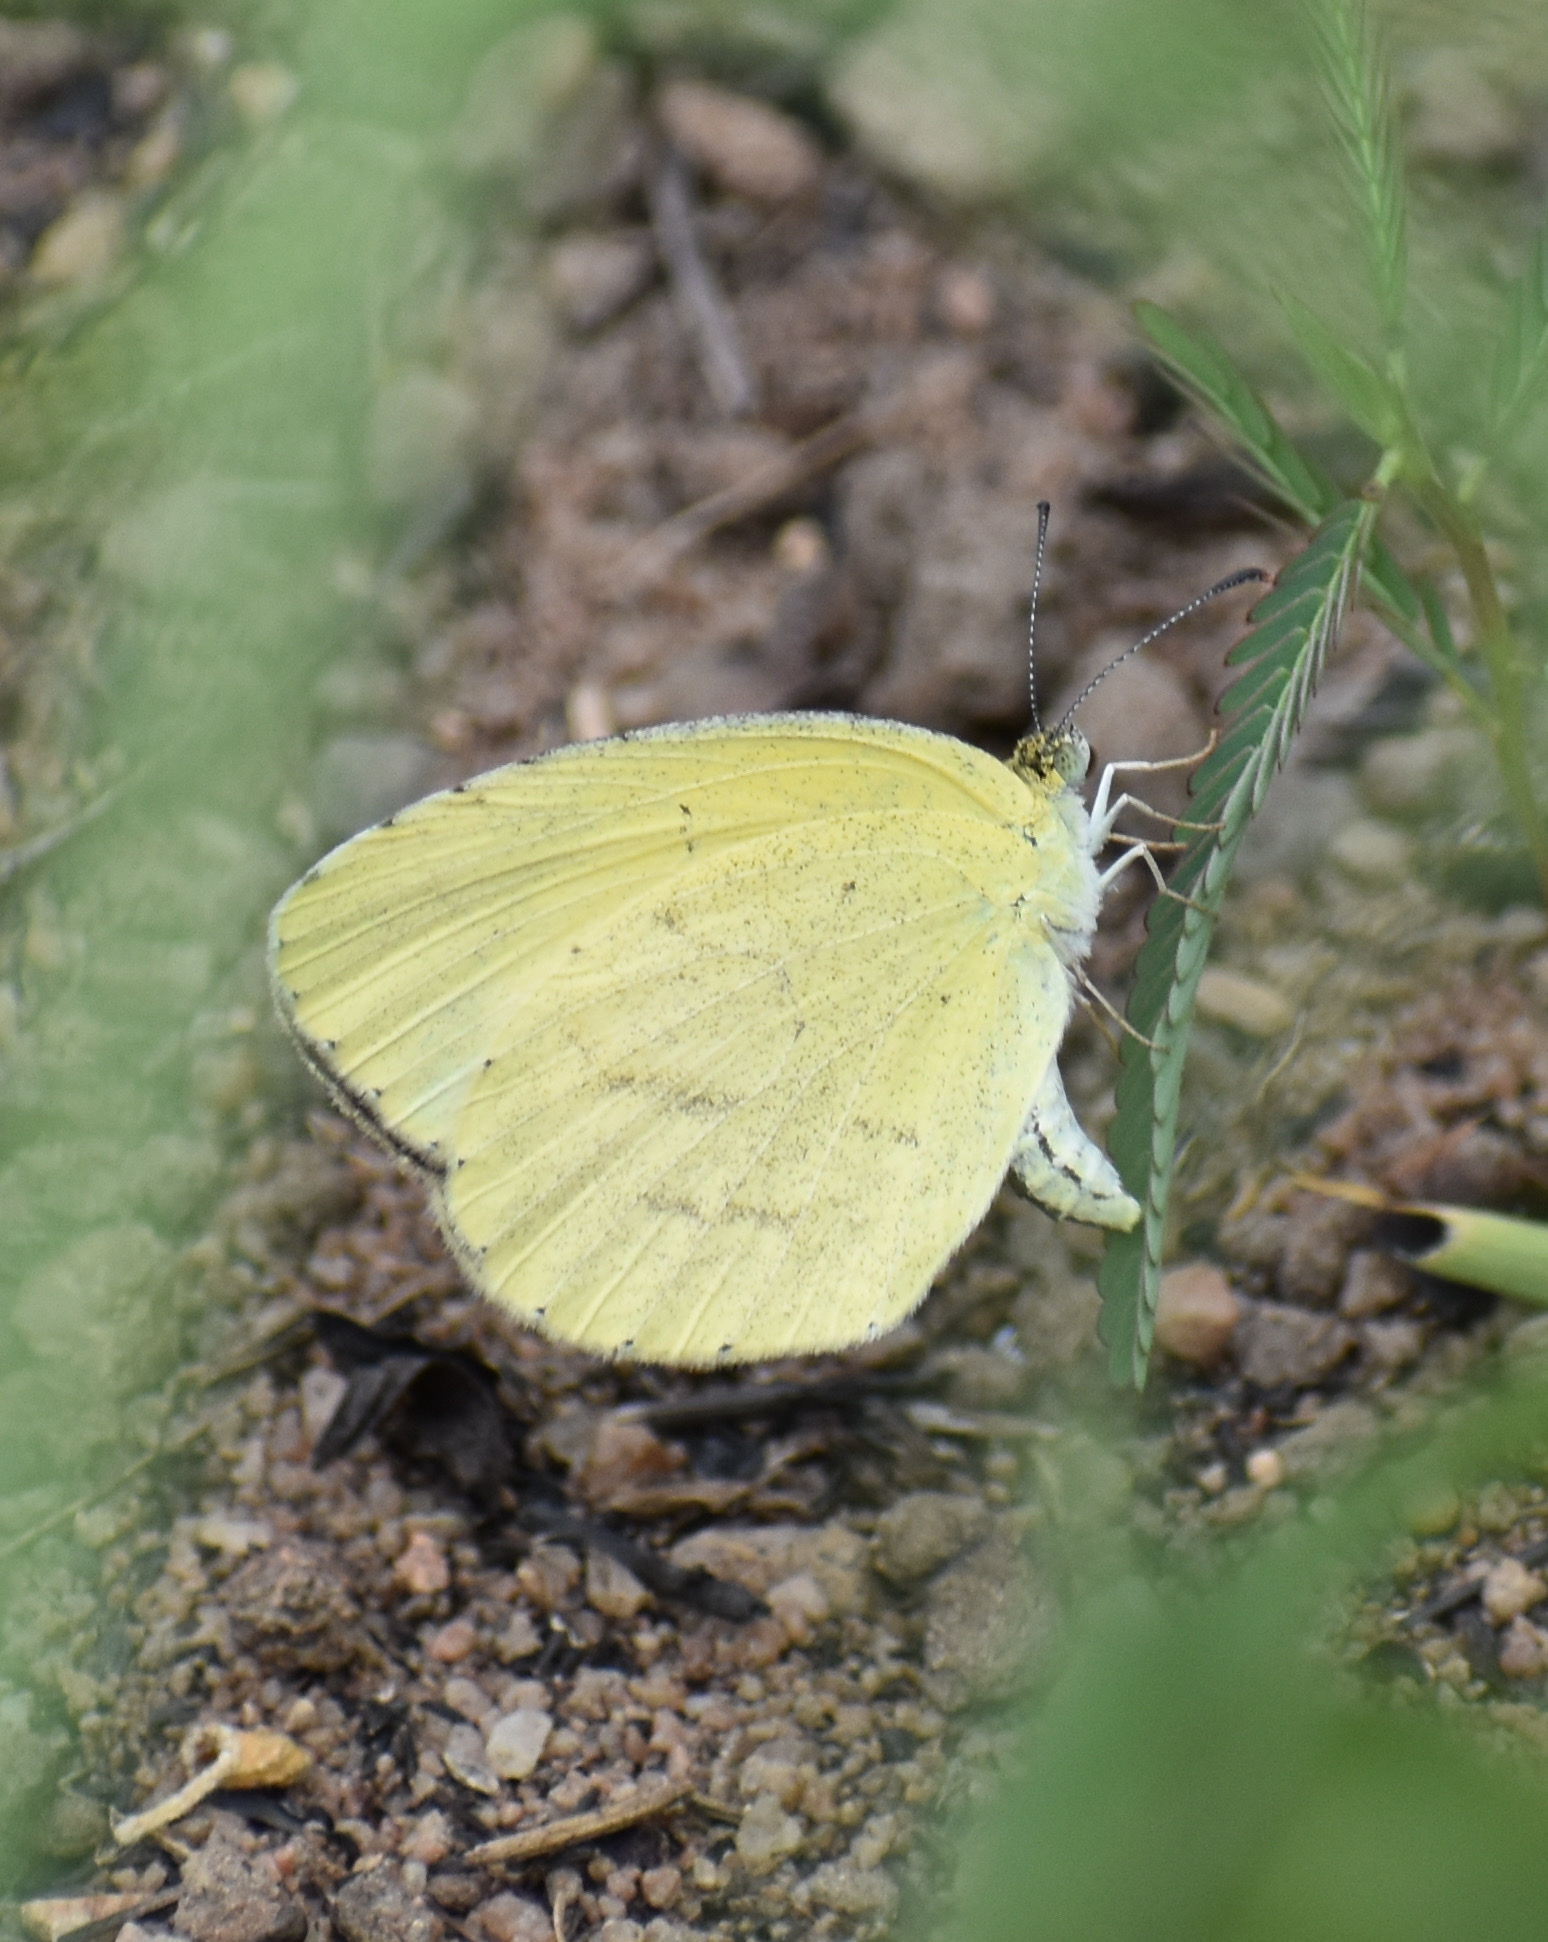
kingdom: Animalia
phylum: Arthropoda
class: Insecta
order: Lepidoptera
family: Pieridae
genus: Eurema
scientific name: Eurema brigitta
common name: Small grass yellow
